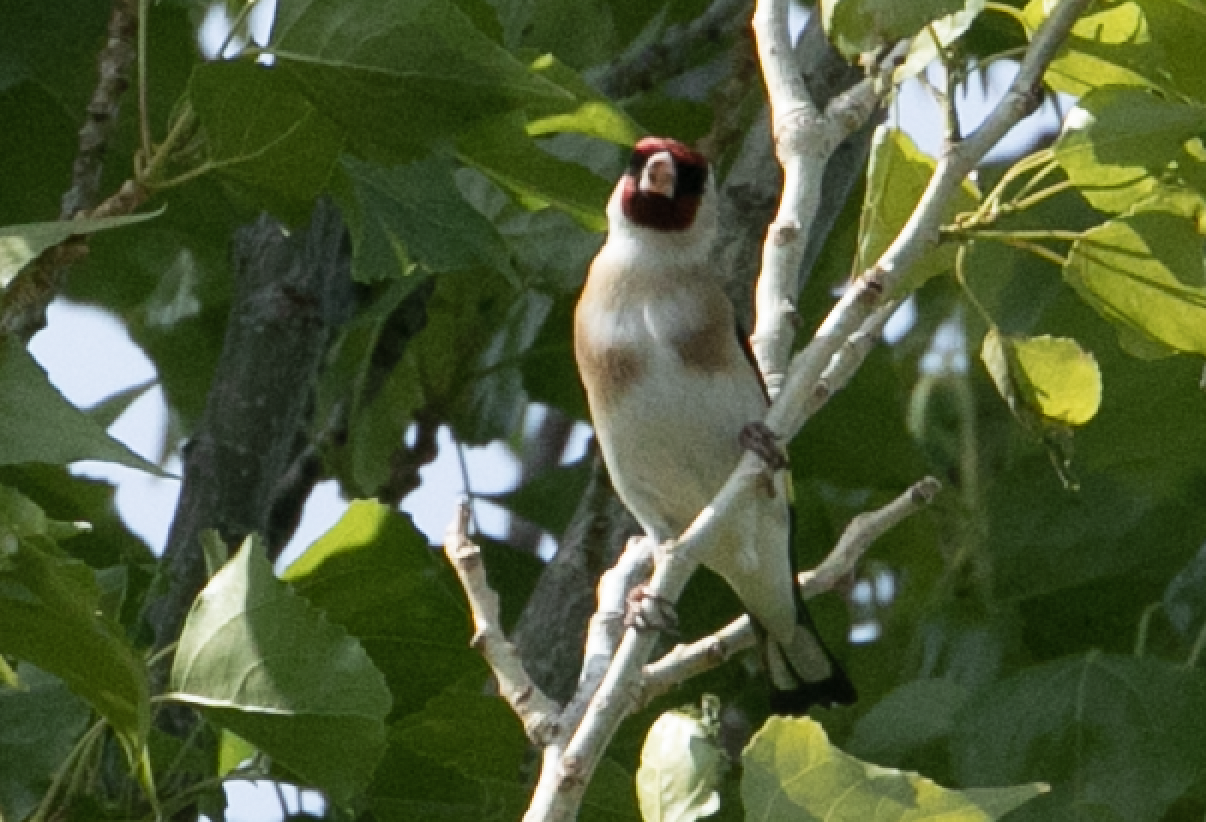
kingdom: Animalia
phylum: Chordata
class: Aves
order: Passeriformes
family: Fringillidae
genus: Carduelis
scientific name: Carduelis carduelis
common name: European goldfinch
